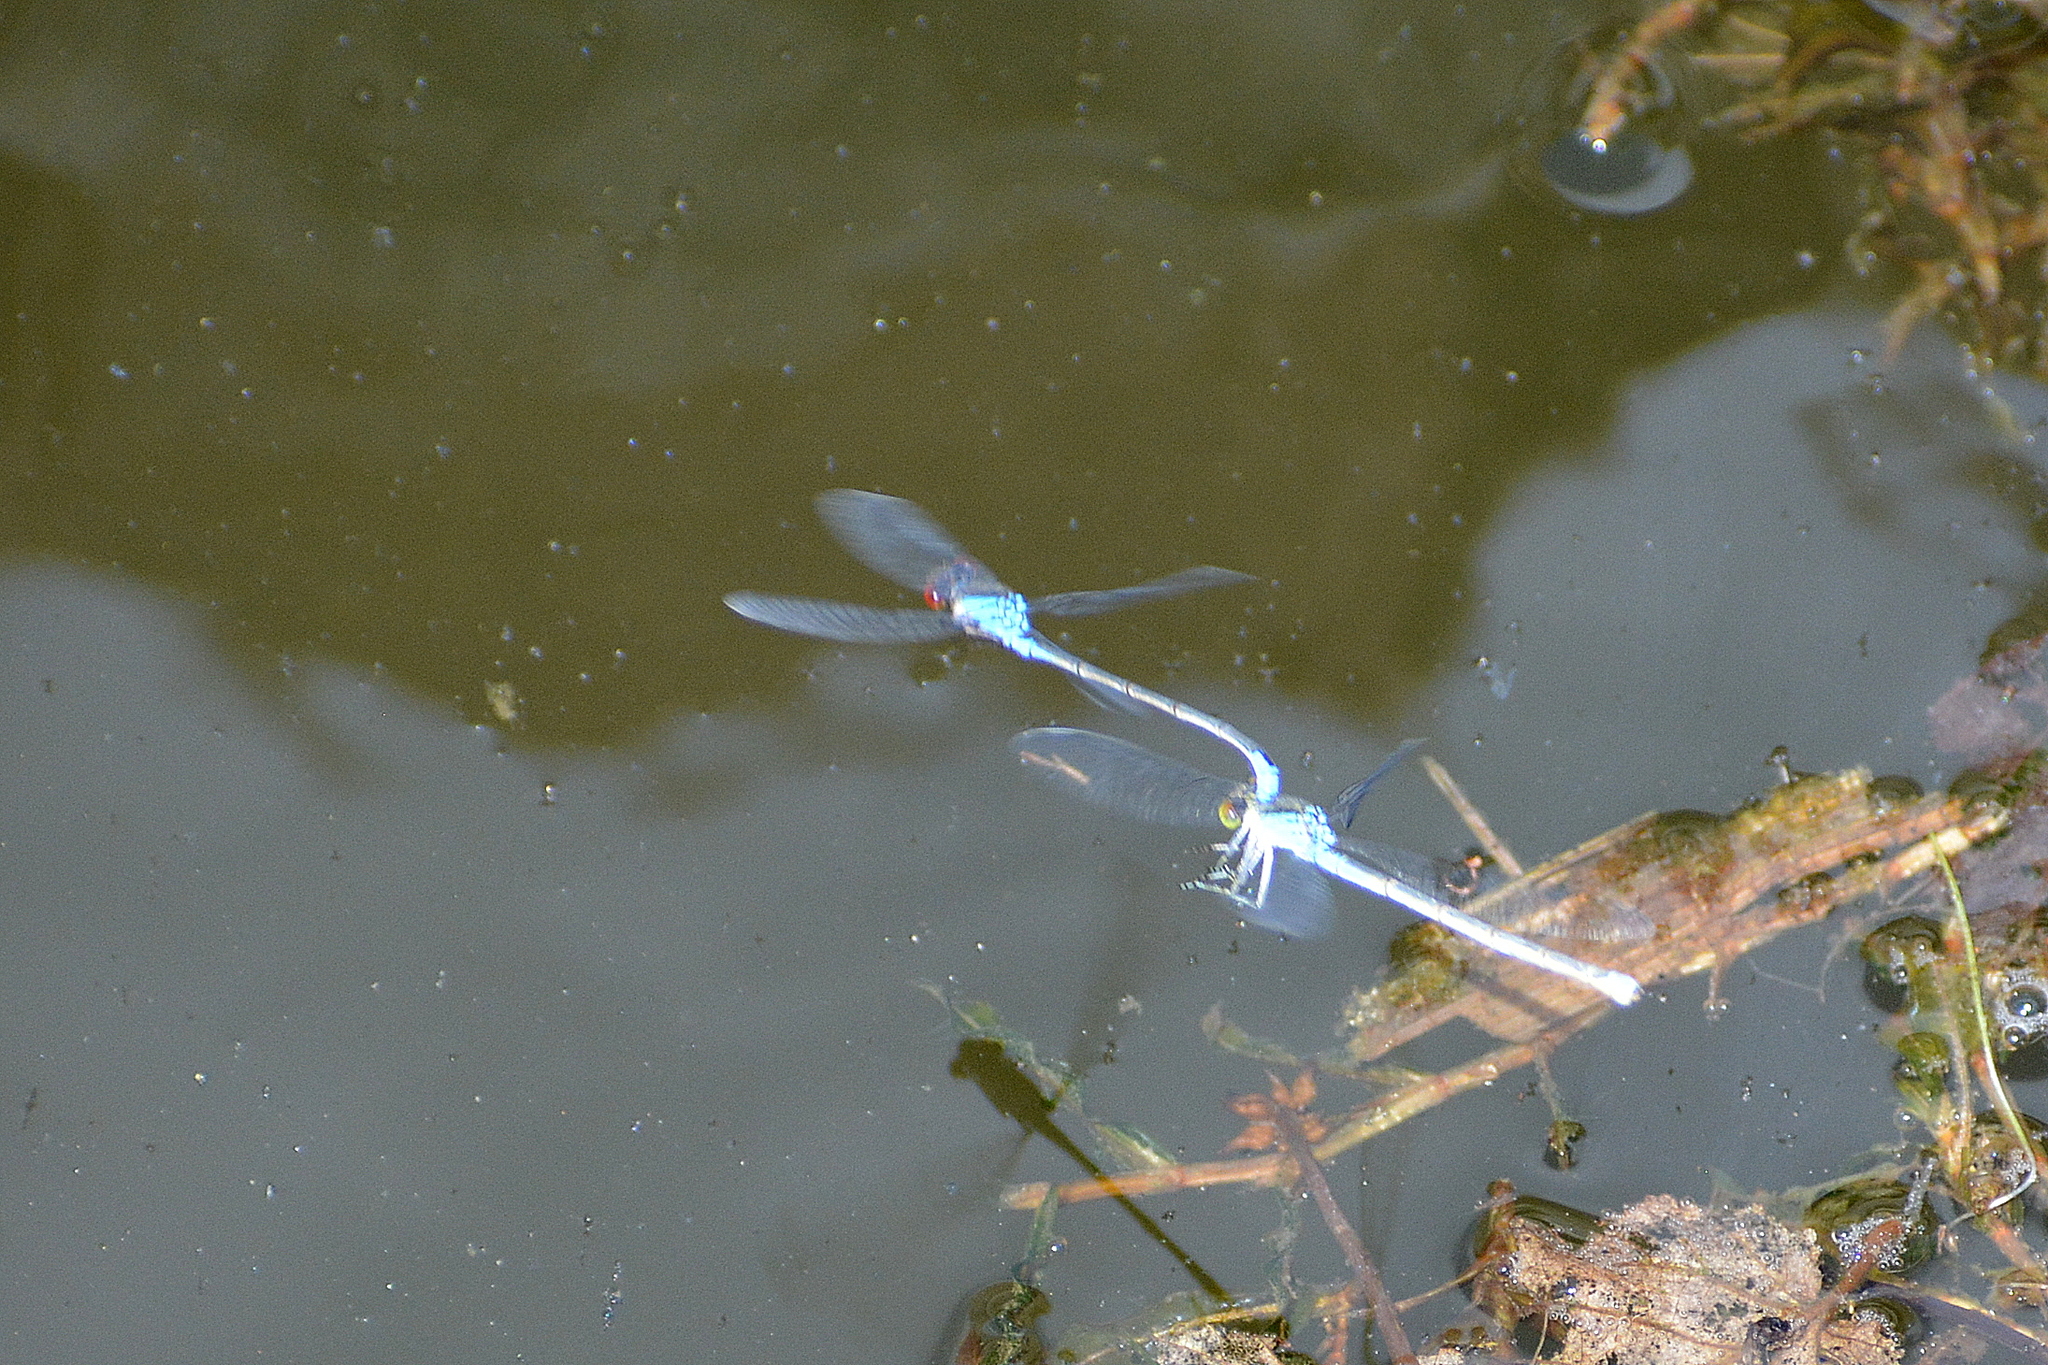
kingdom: Animalia
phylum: Arthropoda
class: Insecta
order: Odonata
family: Coenagrionidae
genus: Erythromma
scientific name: Erythromma viridulum
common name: Small red-eyed damselfly
